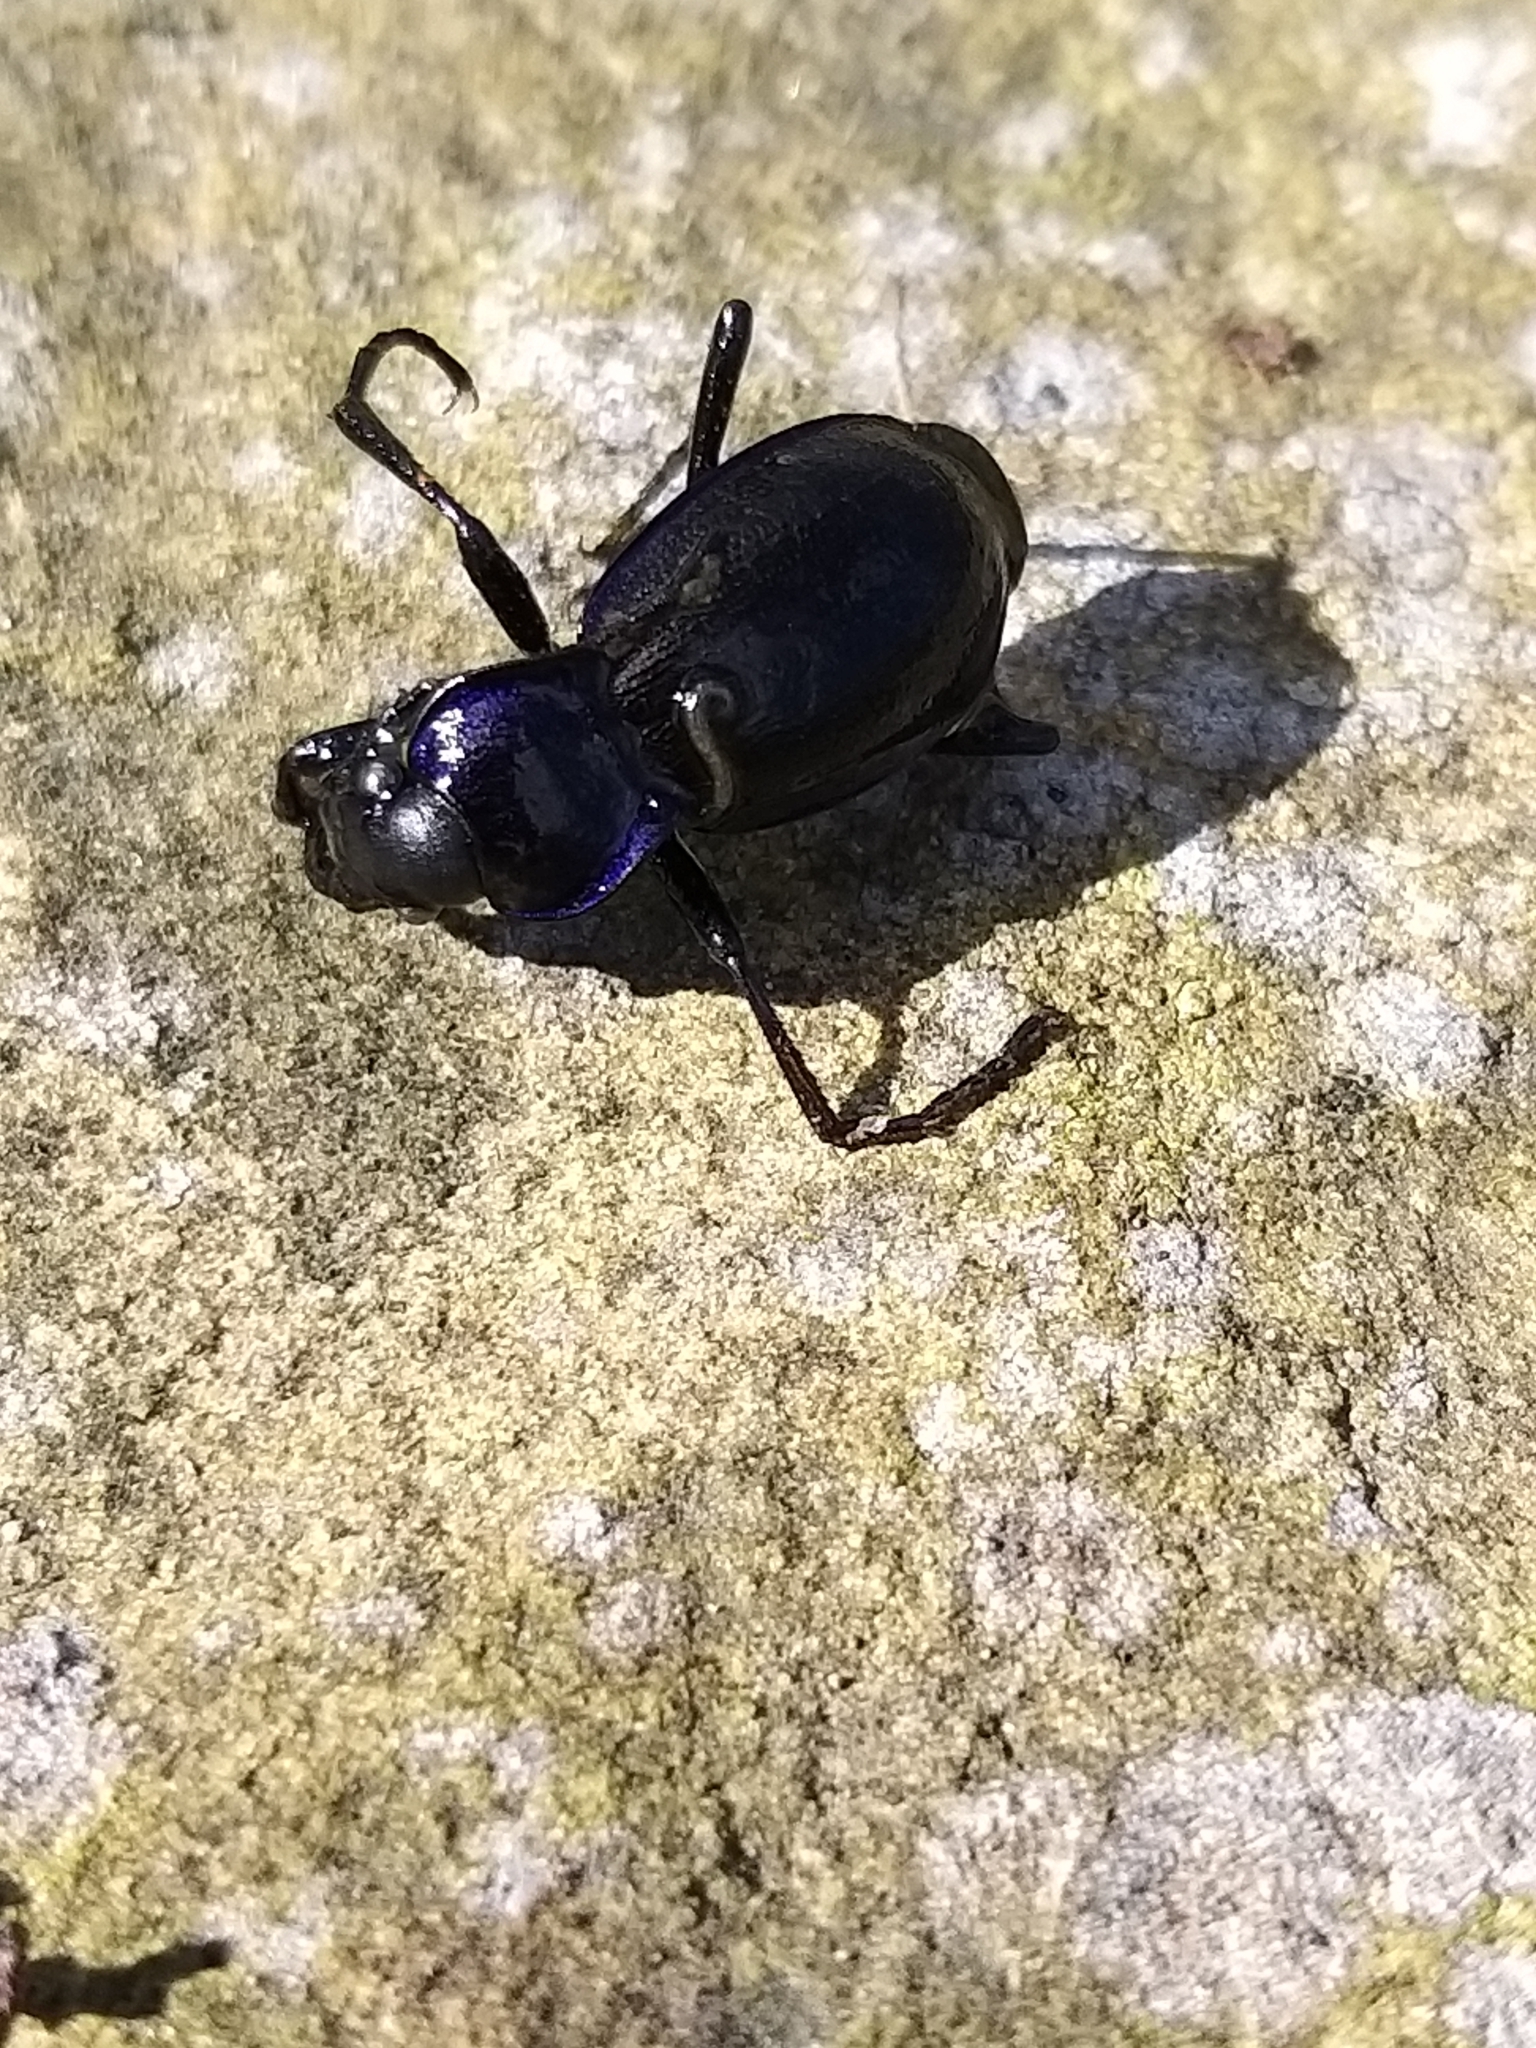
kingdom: Animalia
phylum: Arthropoda
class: Insecta
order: Coleoptera
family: Carabidae
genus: Carabus
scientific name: Carabus problematicus
